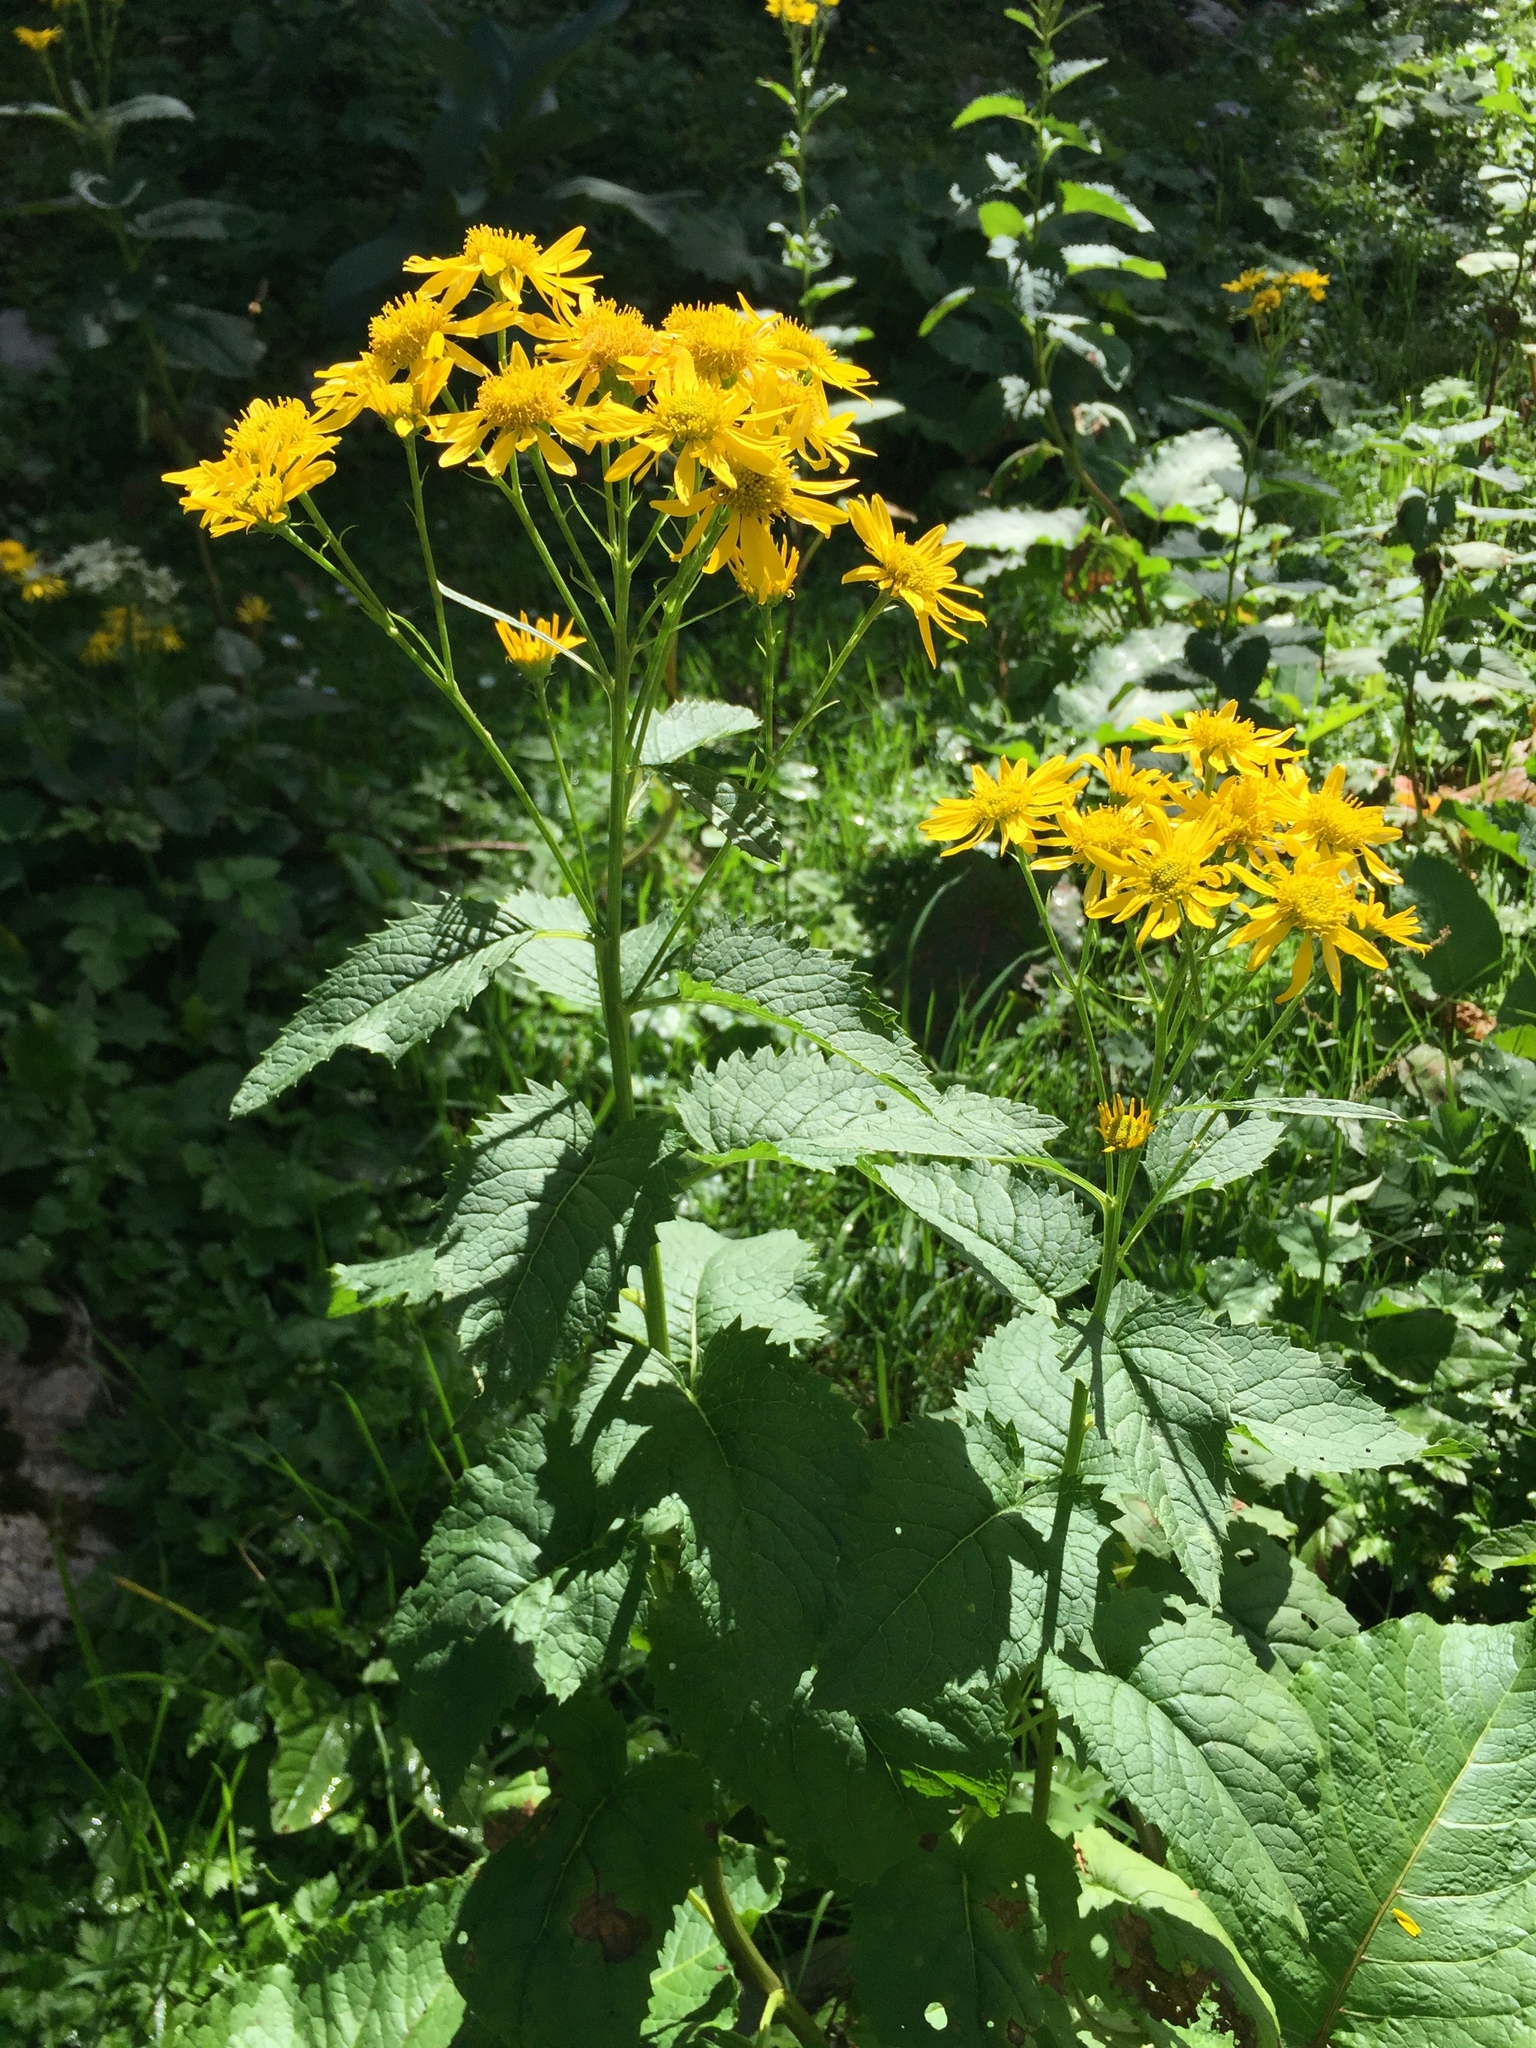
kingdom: Plantae
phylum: Tracheophyta
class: Magnoliopsida
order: Asterales
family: Asteraceae
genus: Jacobaea
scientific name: Jacobaea alpina
